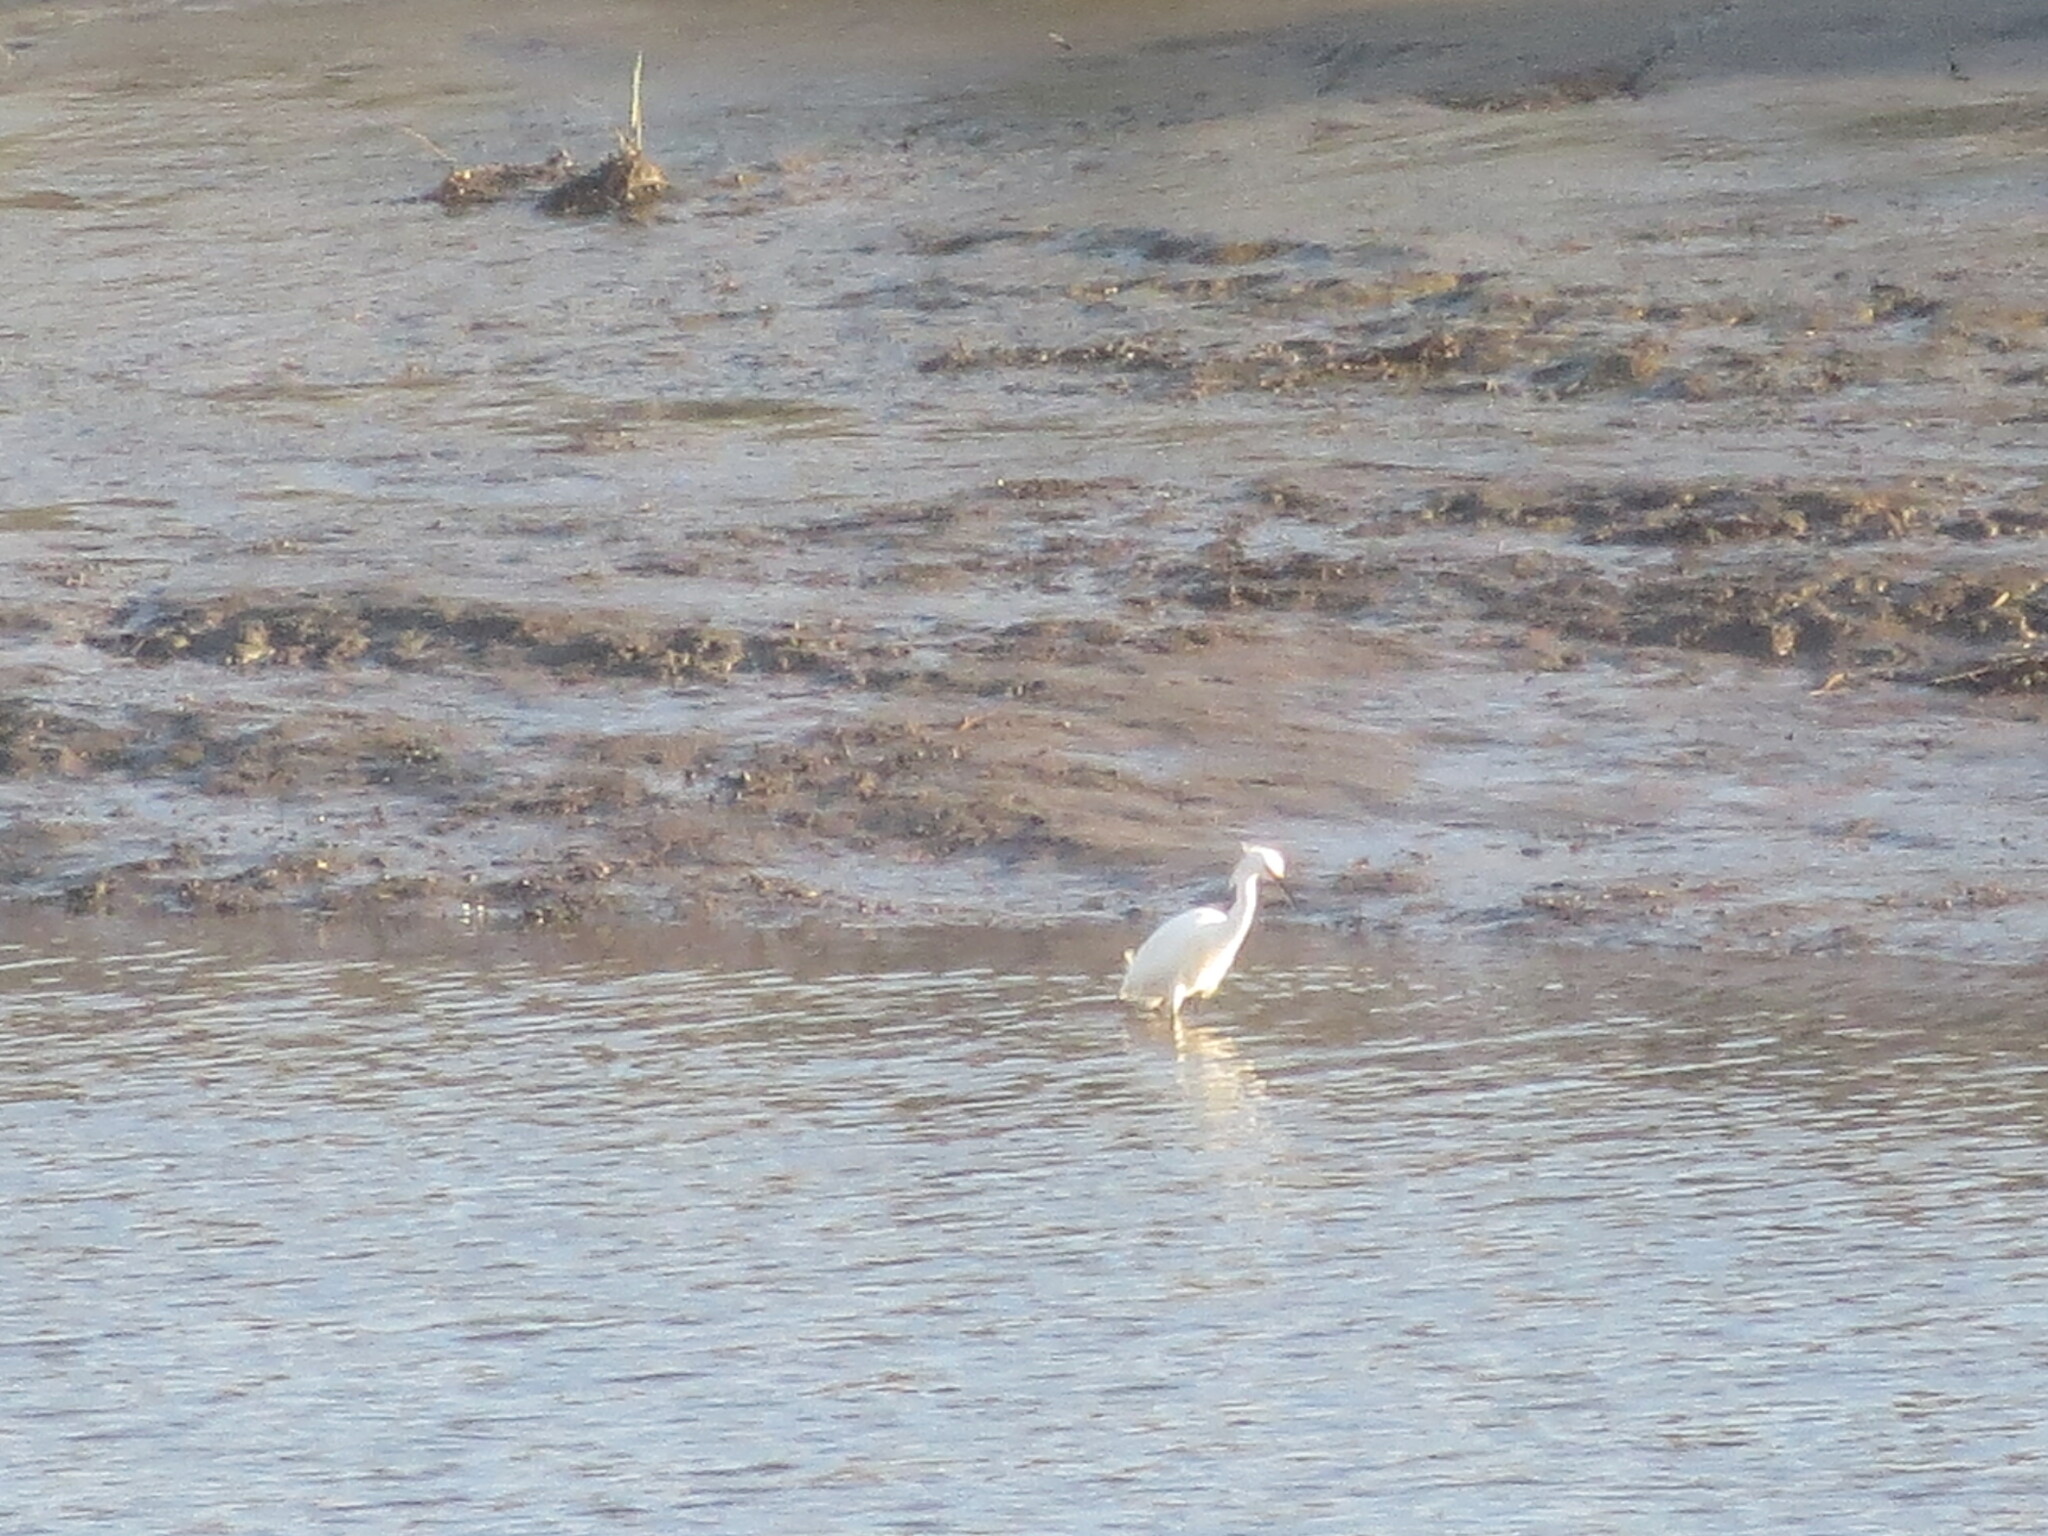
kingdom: Animalia
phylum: Chordata
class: Aves
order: Pelecaniformes
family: Ardeidae
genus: Egretta
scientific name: Egretta thula
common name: Snowy egret
